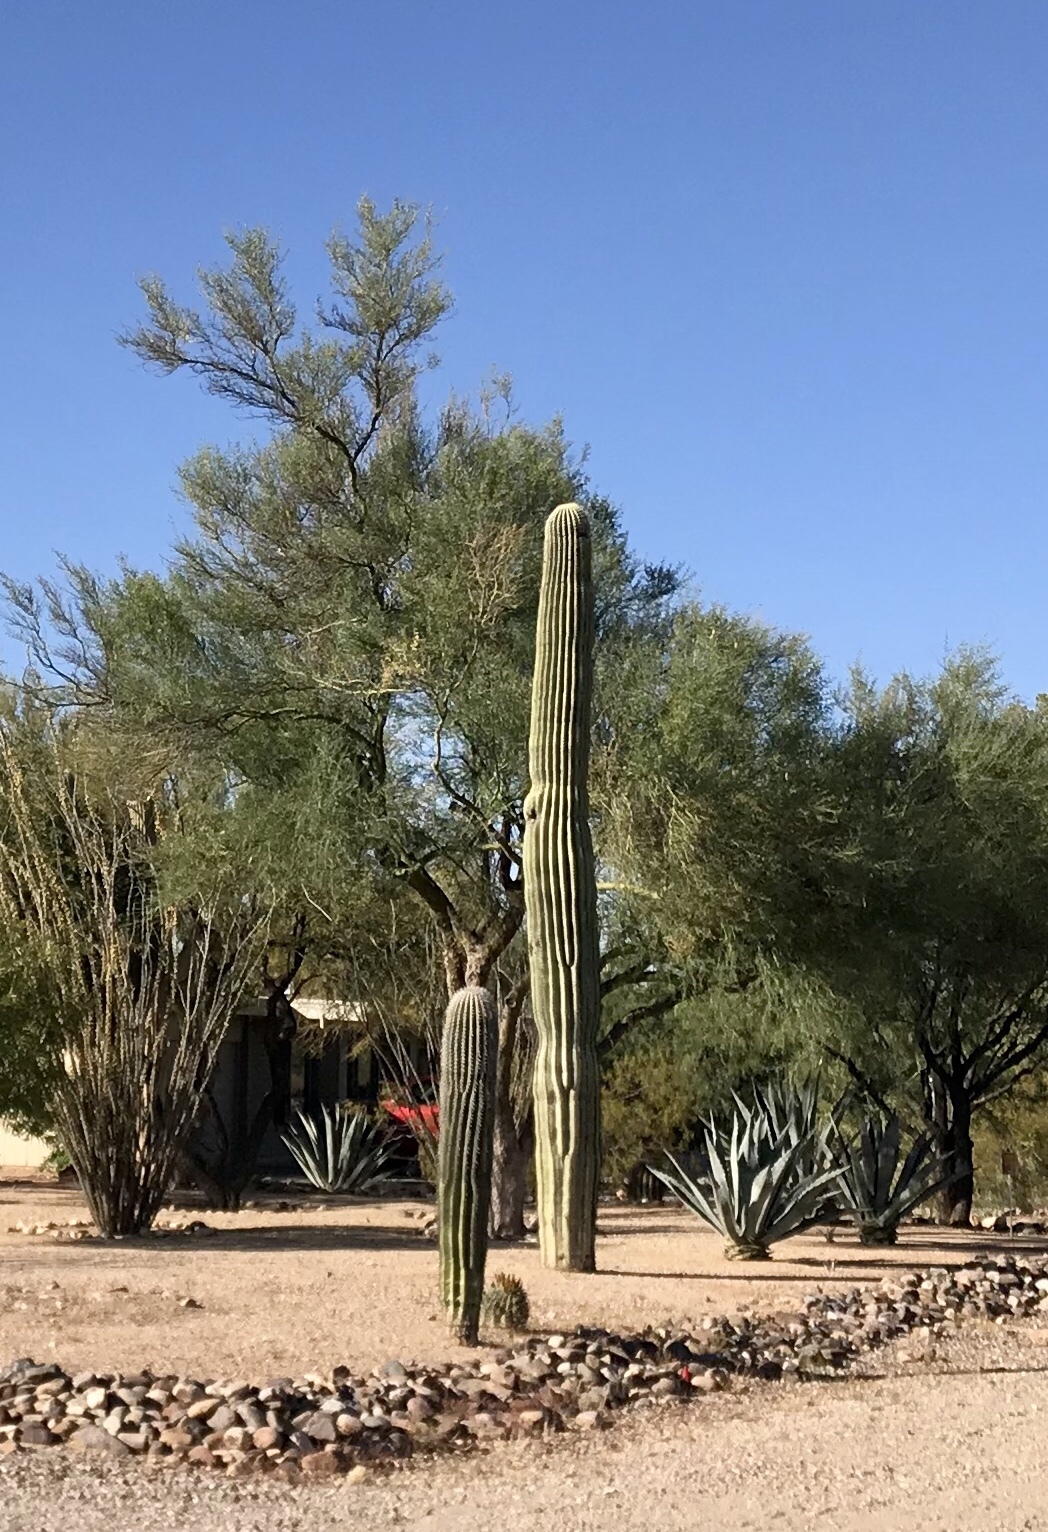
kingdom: Plantae
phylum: Tracheophyta
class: Magnoliopsida
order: Caryophyllales
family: Cactaceae
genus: Carnegiea
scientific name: Carnegiea gigantea
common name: Saguaro
